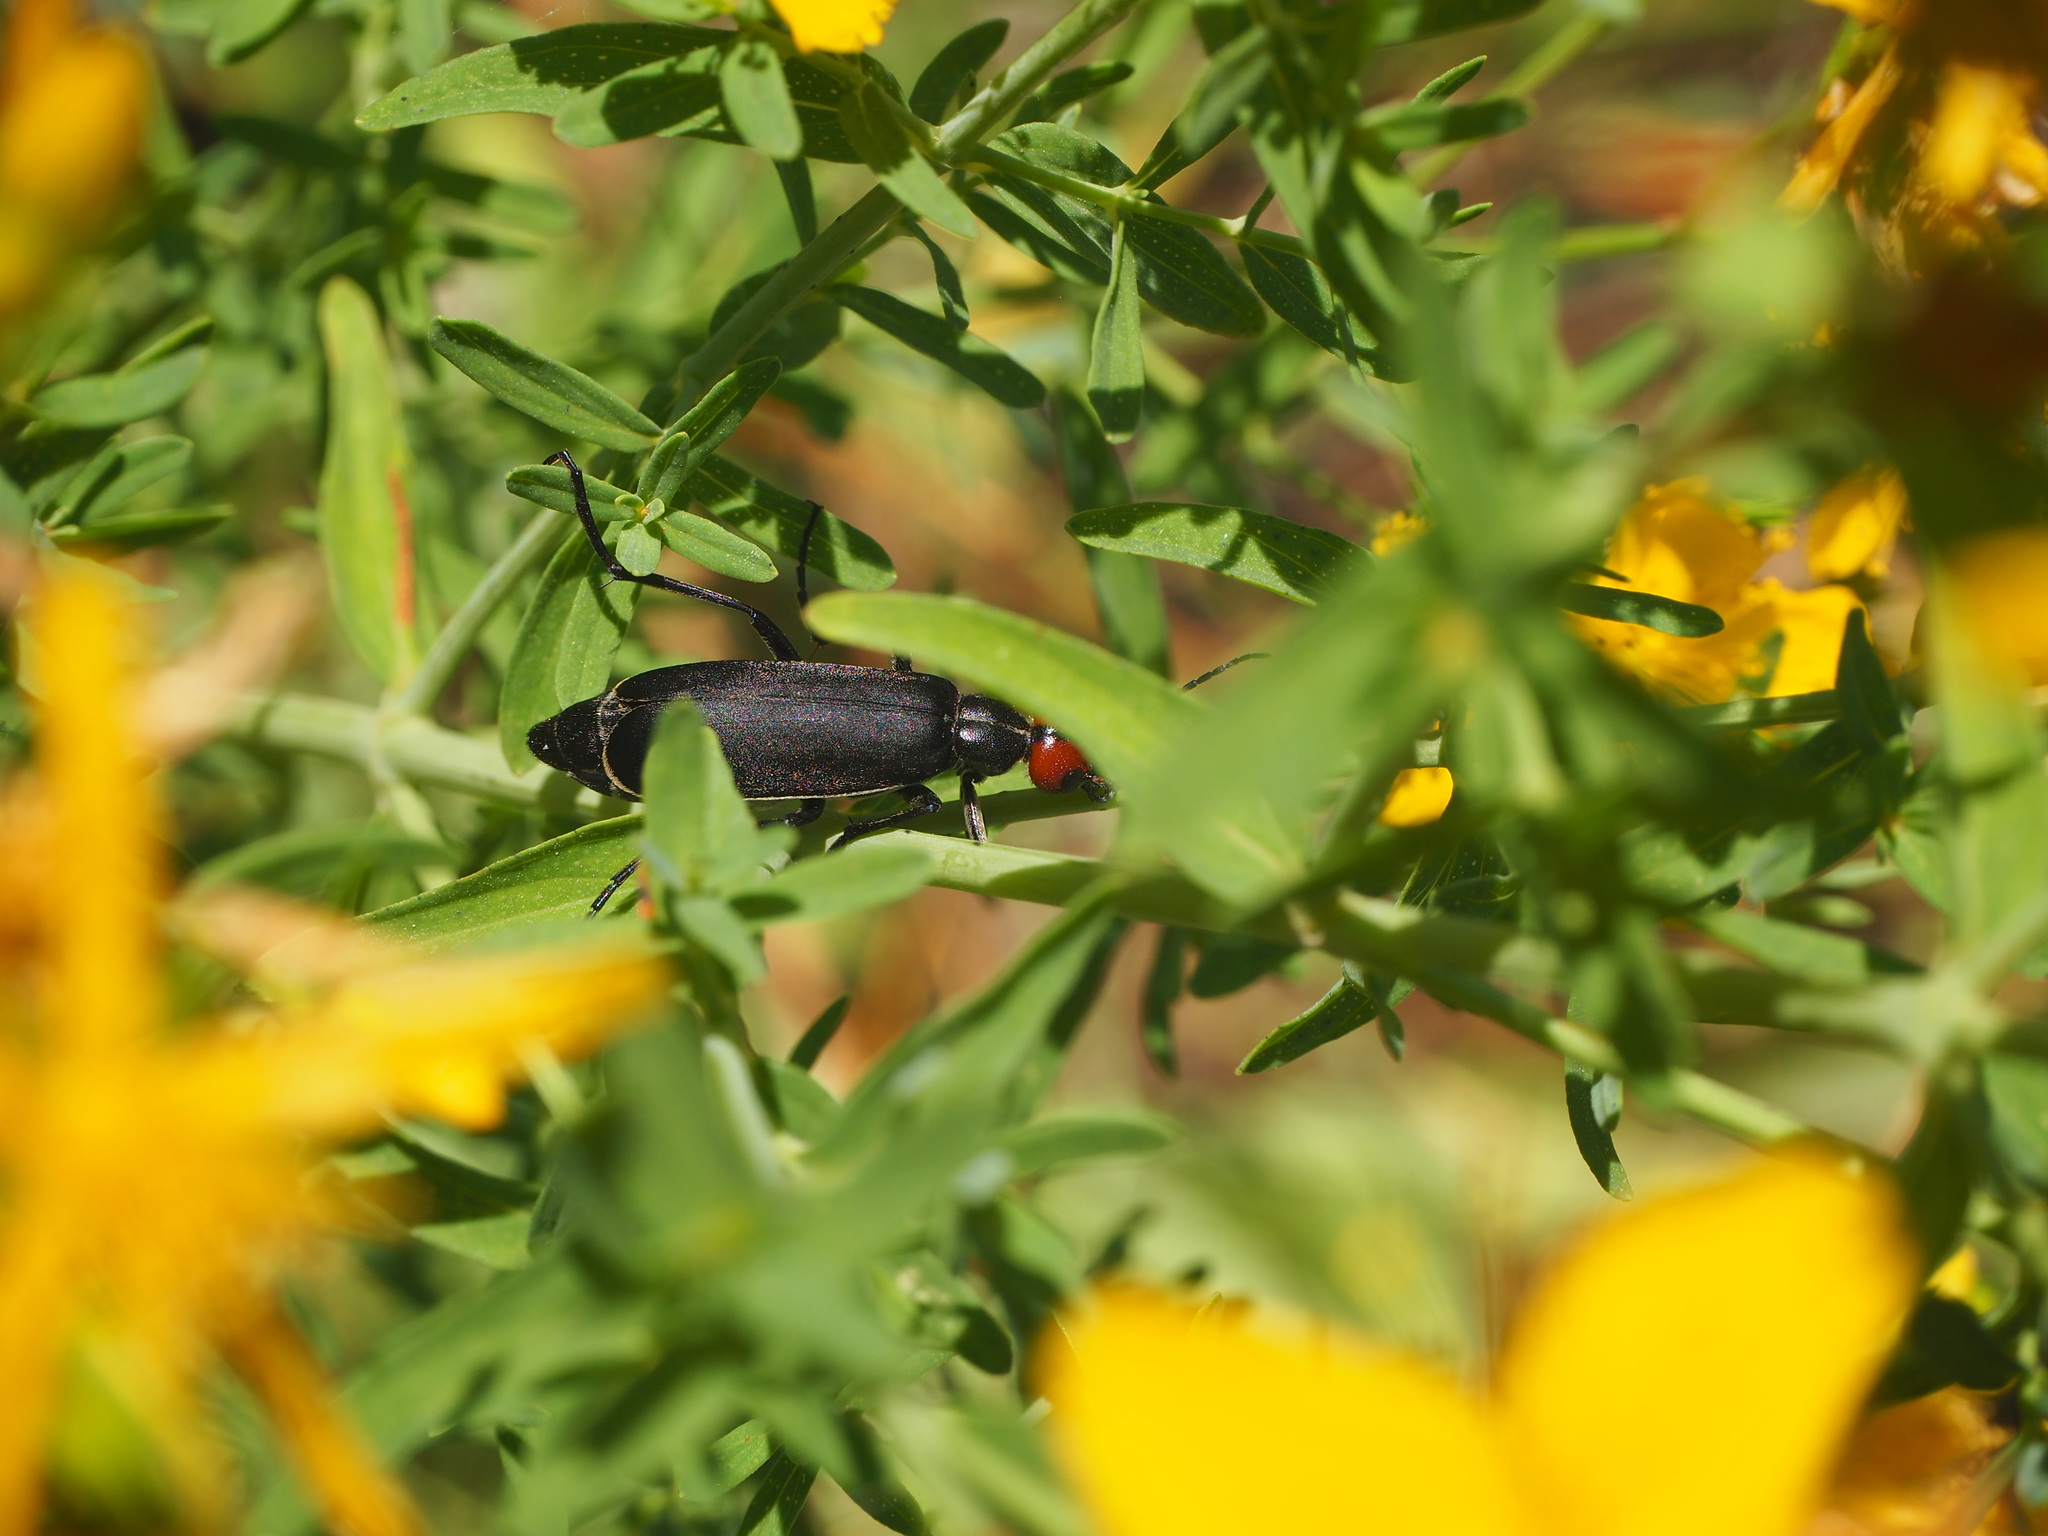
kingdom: Animalia
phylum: Arthropoda
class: Insecta
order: Coleoptera
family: Meloidae
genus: Epicauta
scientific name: Epicauta rufidorsum
